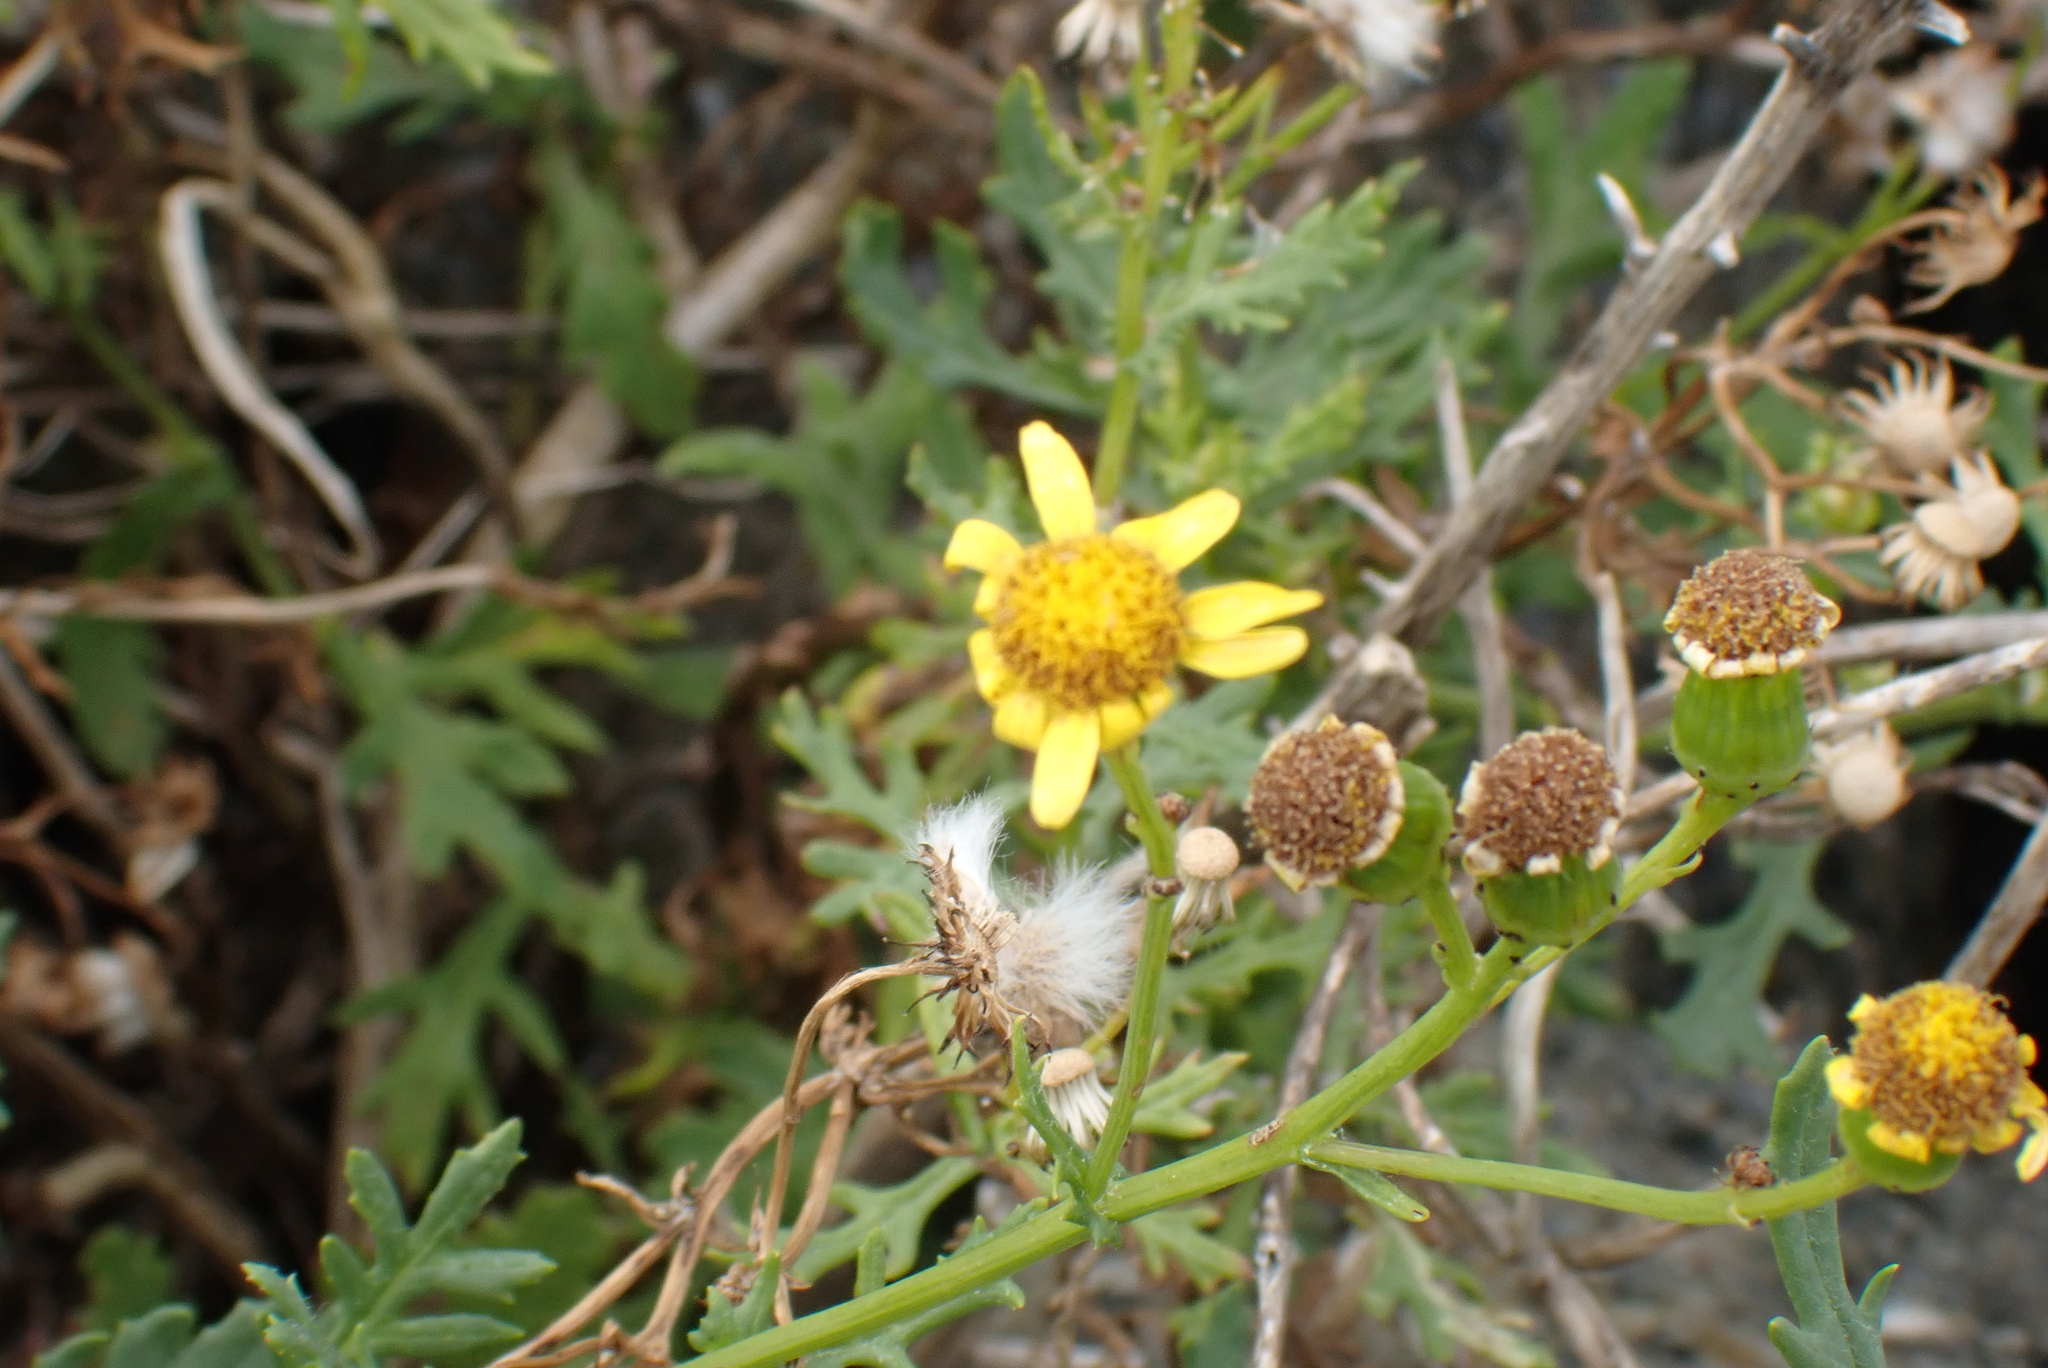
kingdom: Plantae
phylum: Tracheophyta
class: Magnoliopsida
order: Asterales
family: Asteraceae
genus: Senecio
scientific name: Senecio squalidus
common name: Oxford ragwort
